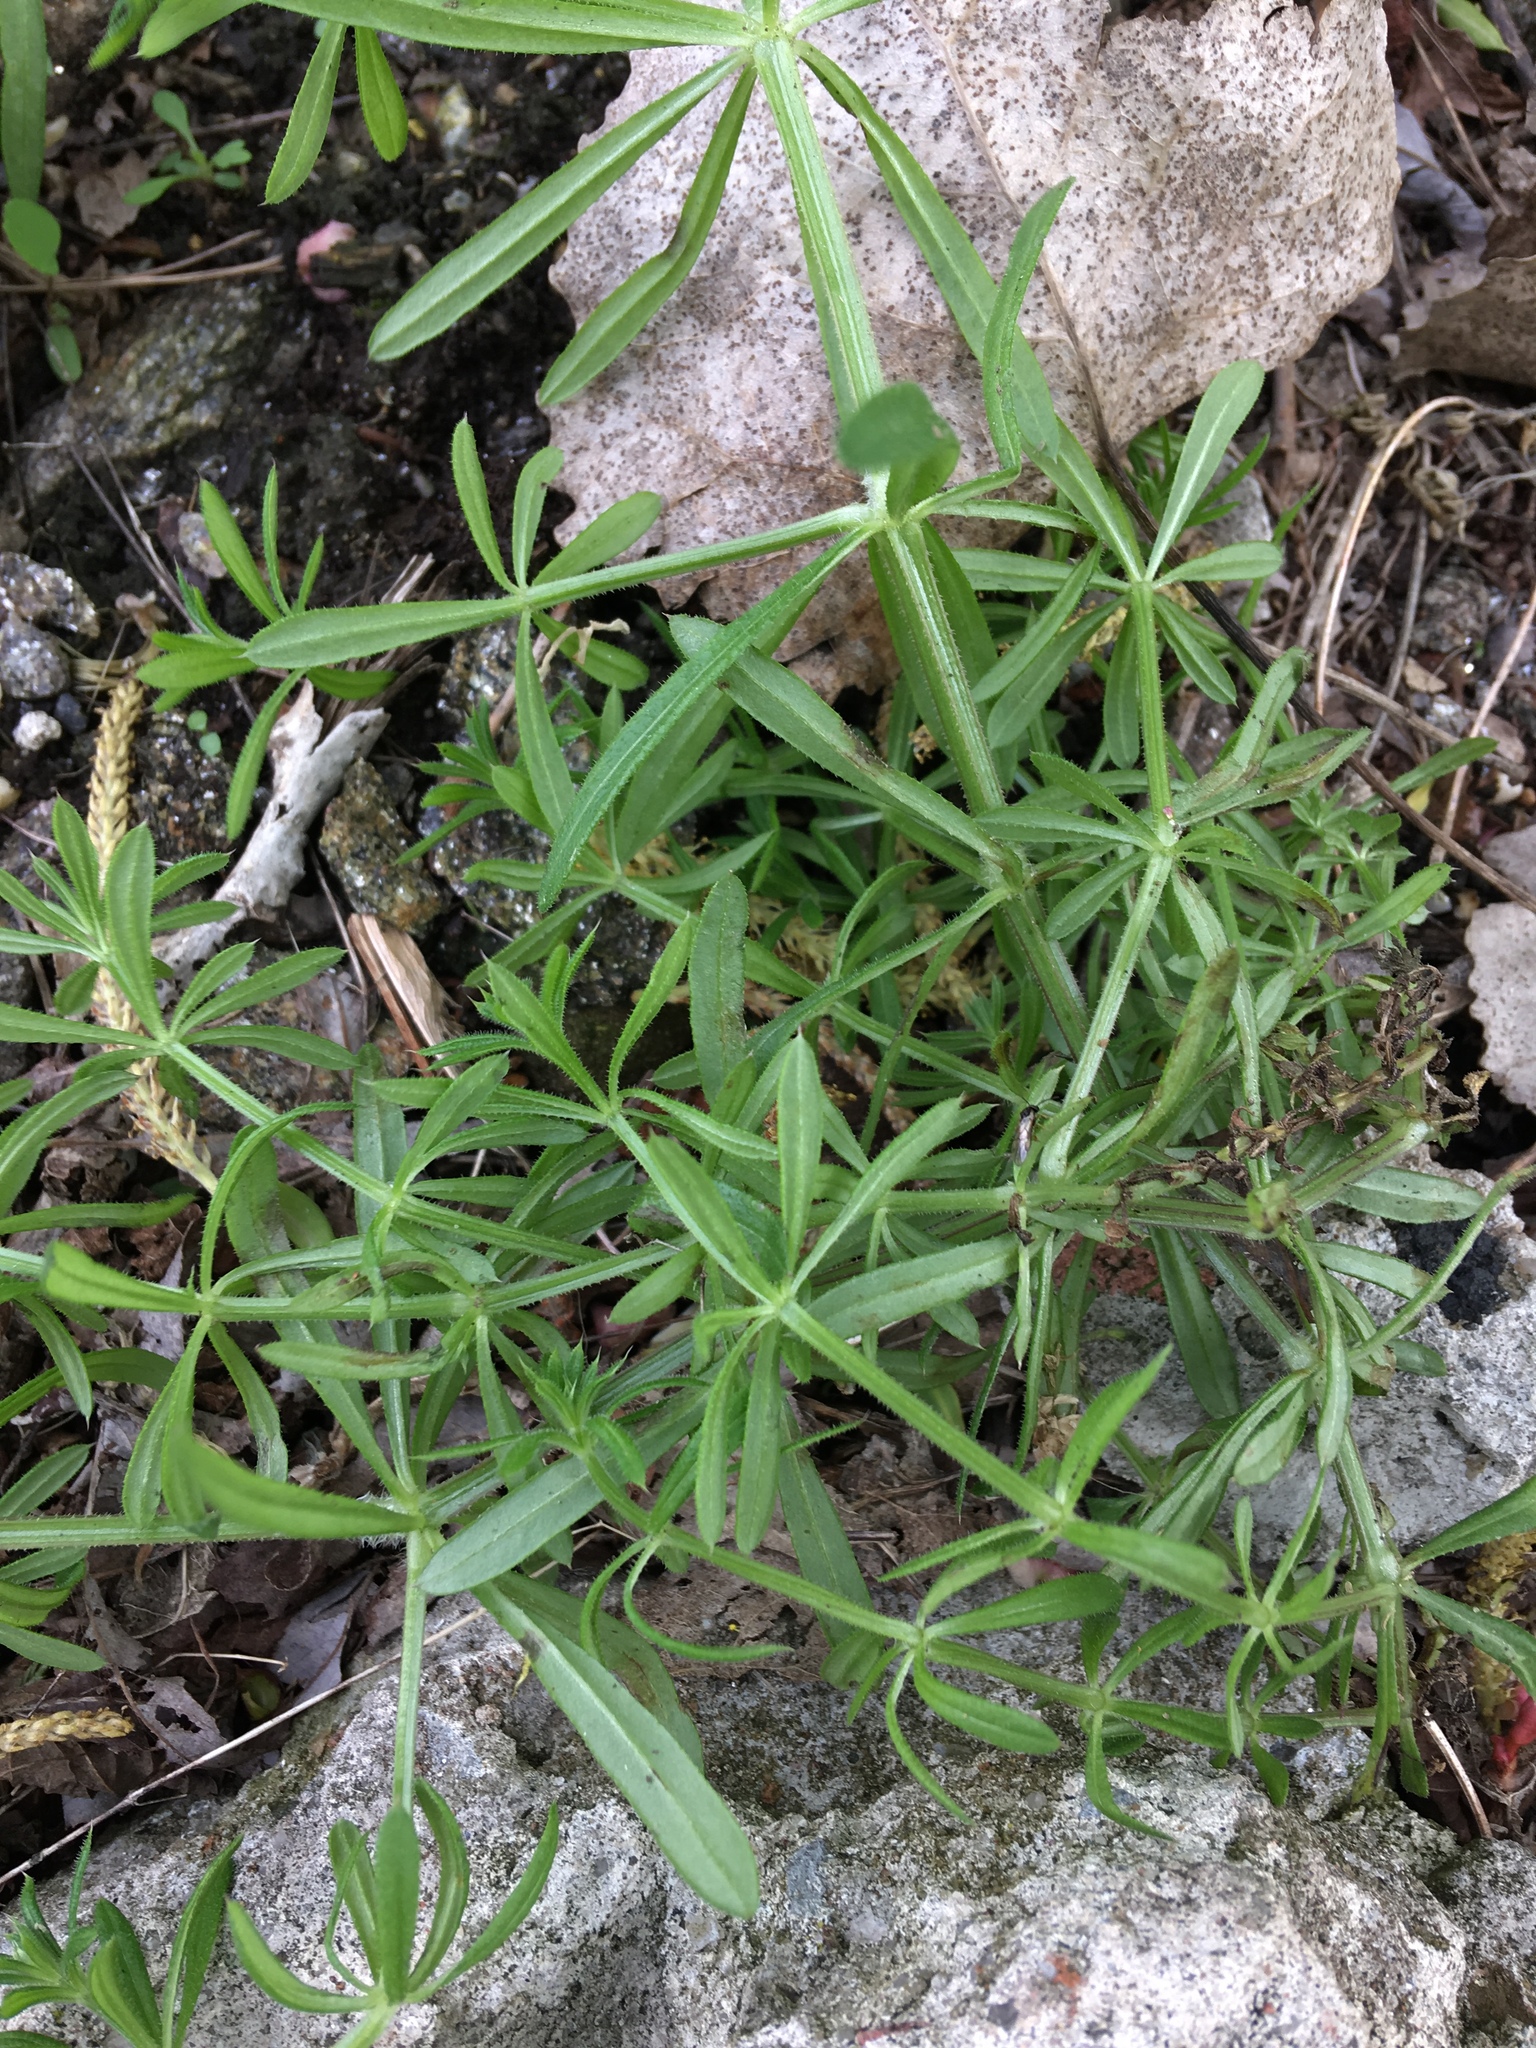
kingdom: Plantae
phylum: Tracheophyta
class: Magnoliopsida
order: Gentianales
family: Rubiaceae
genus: Galium
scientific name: Galium aparine
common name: Cleavers
